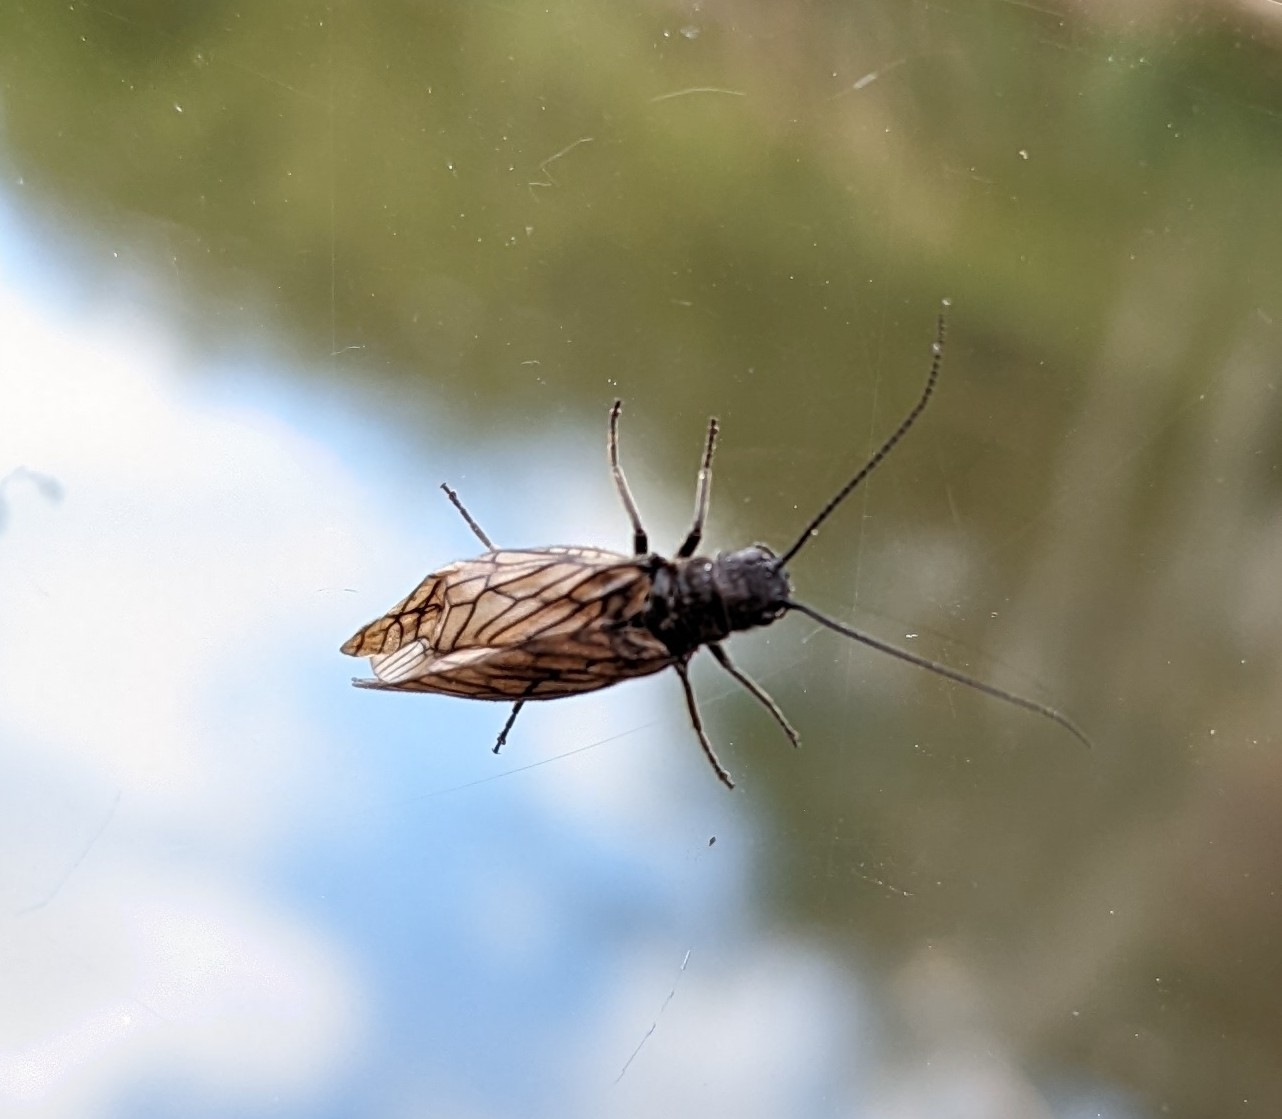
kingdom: Animalia
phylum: Arthropoda
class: Insecta
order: Megaloptera
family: Sialidae
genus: Sialis
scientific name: Sialis
